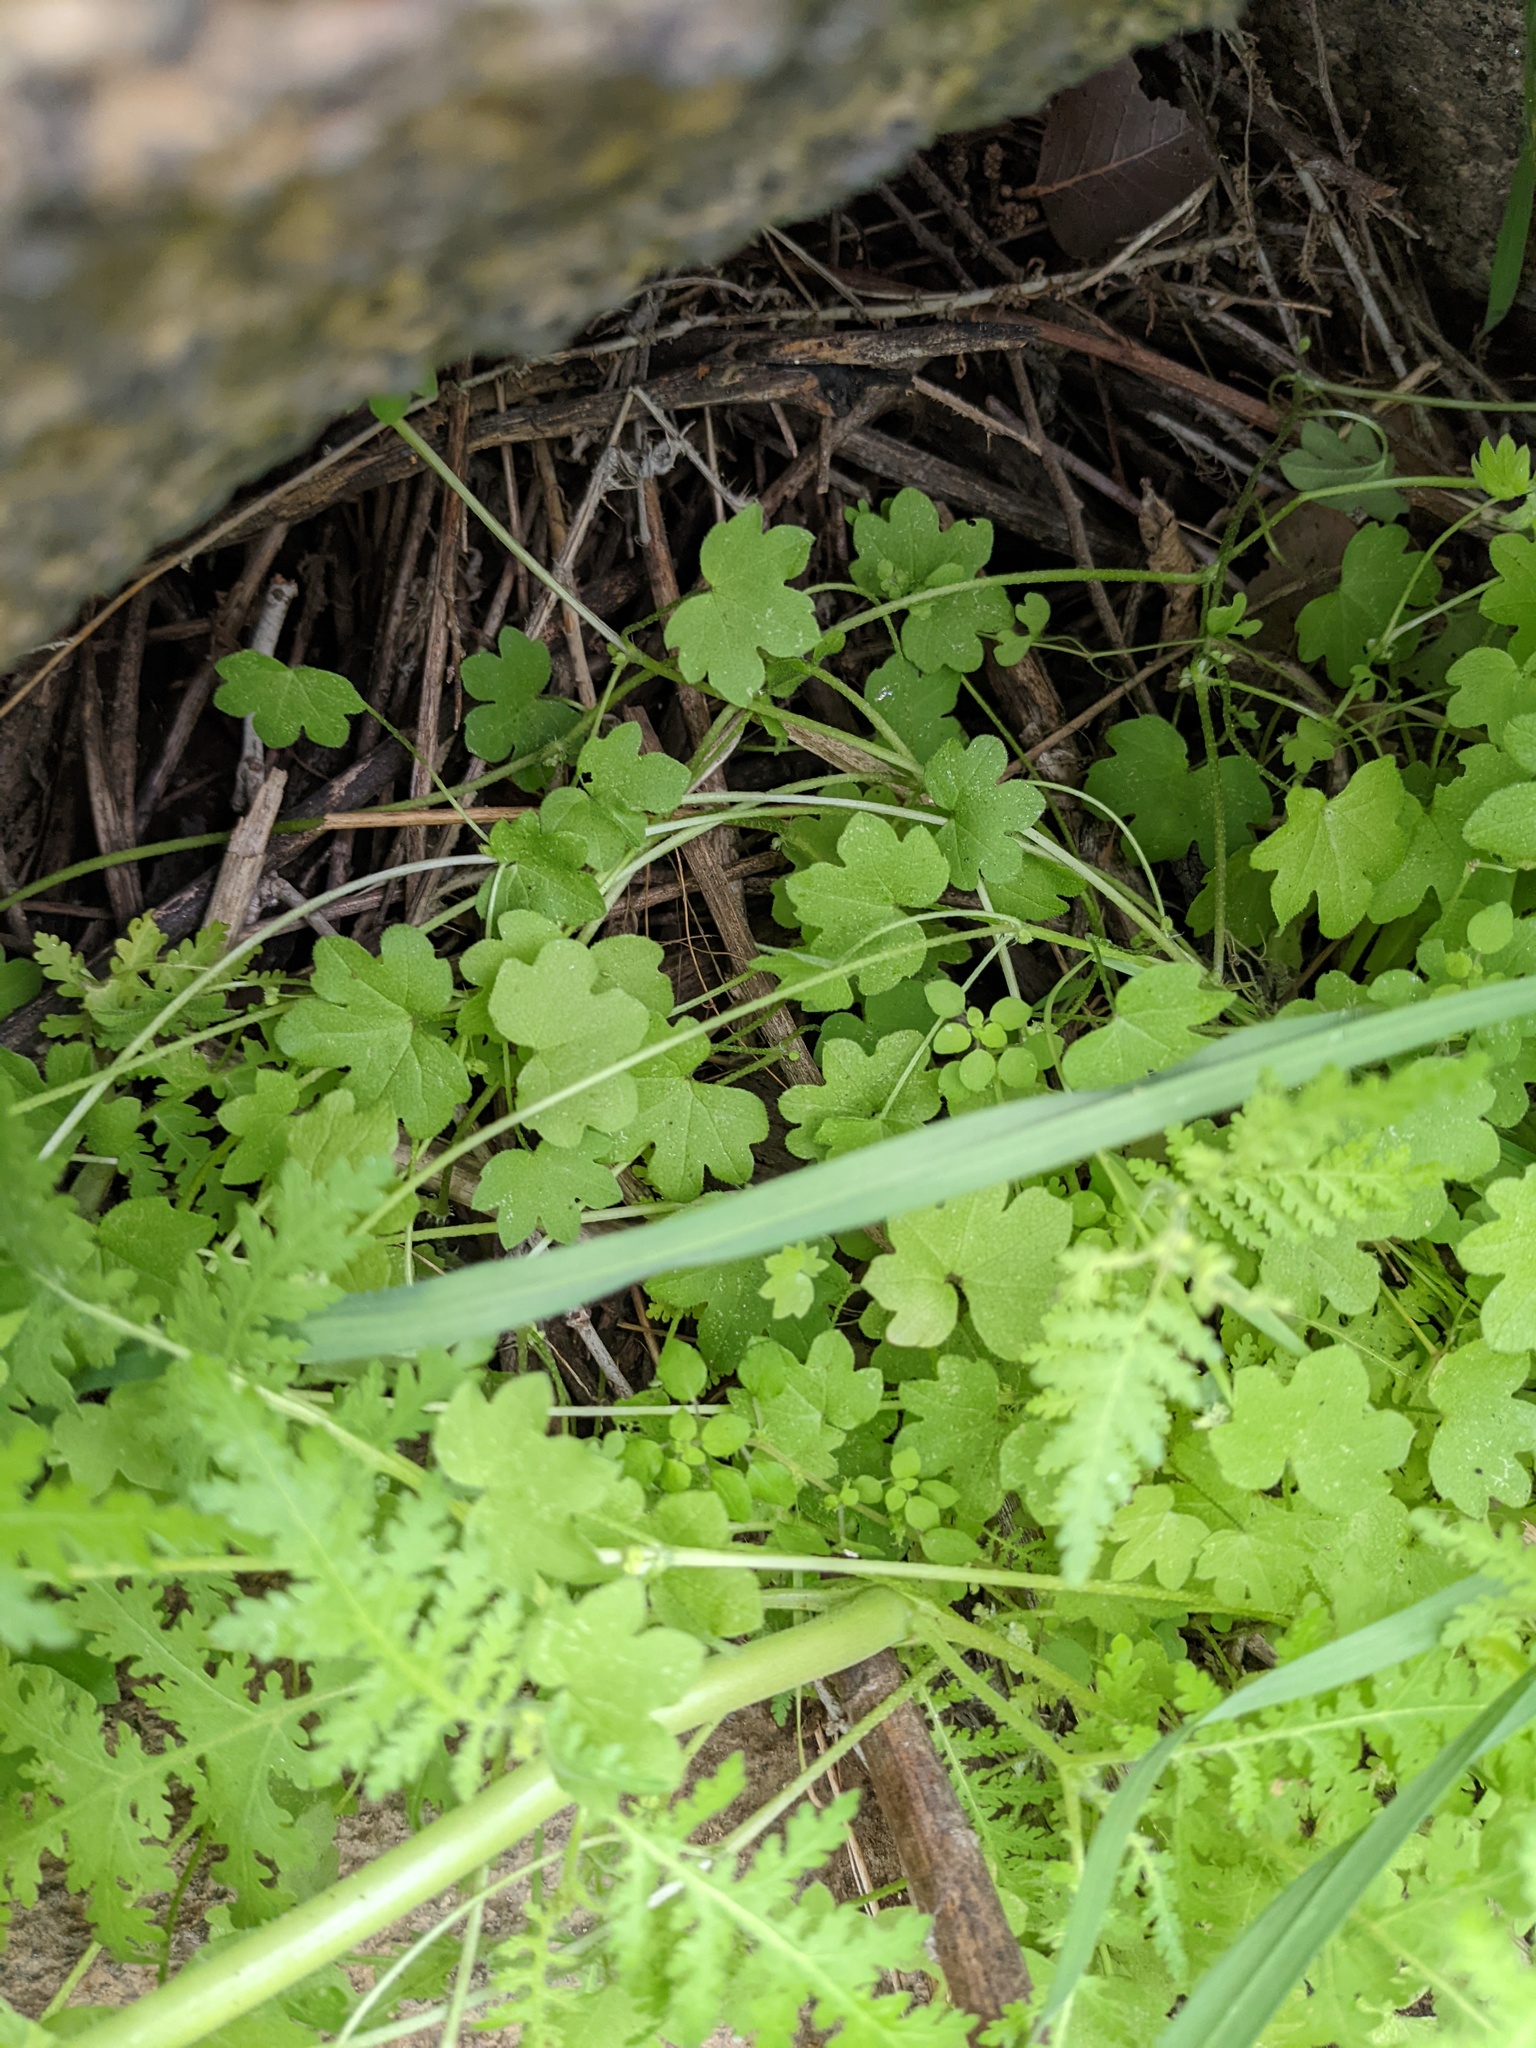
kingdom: Plantae
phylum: Tracheophyta
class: Magnoliopsida
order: Apiales
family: Apiaceae
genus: Bowlesia
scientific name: Bowlesia incana
